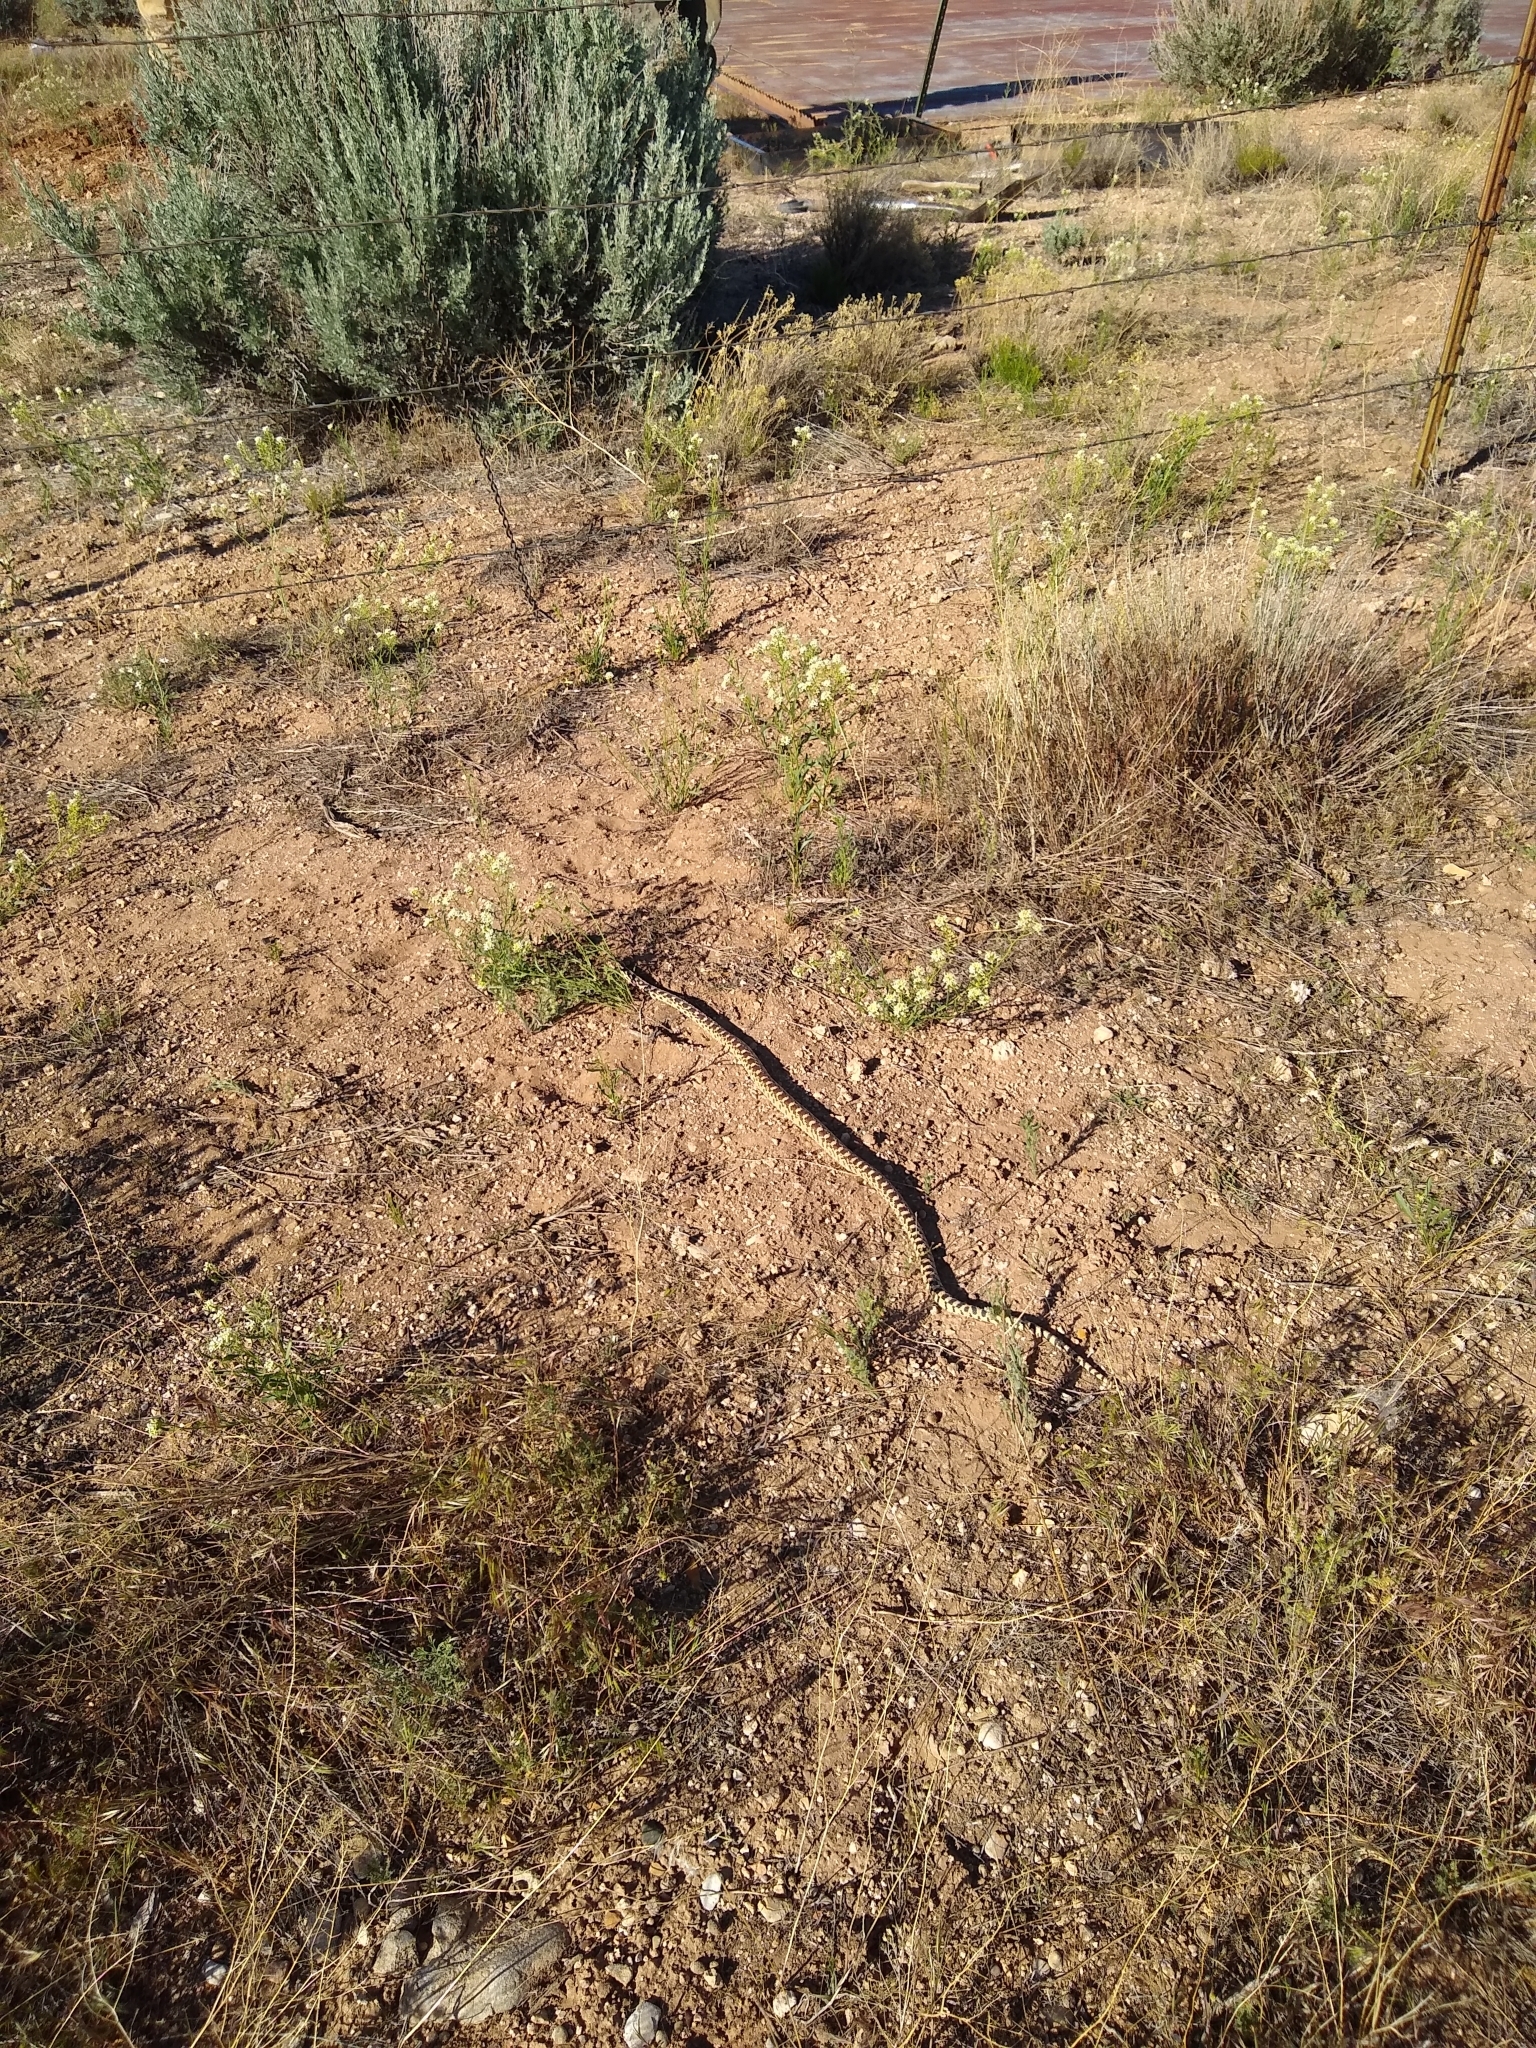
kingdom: Animalia
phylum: Chordata
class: Squamata
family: Colubridae
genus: Pituophis
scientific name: Pituophis catenifer
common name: Gopher snake
